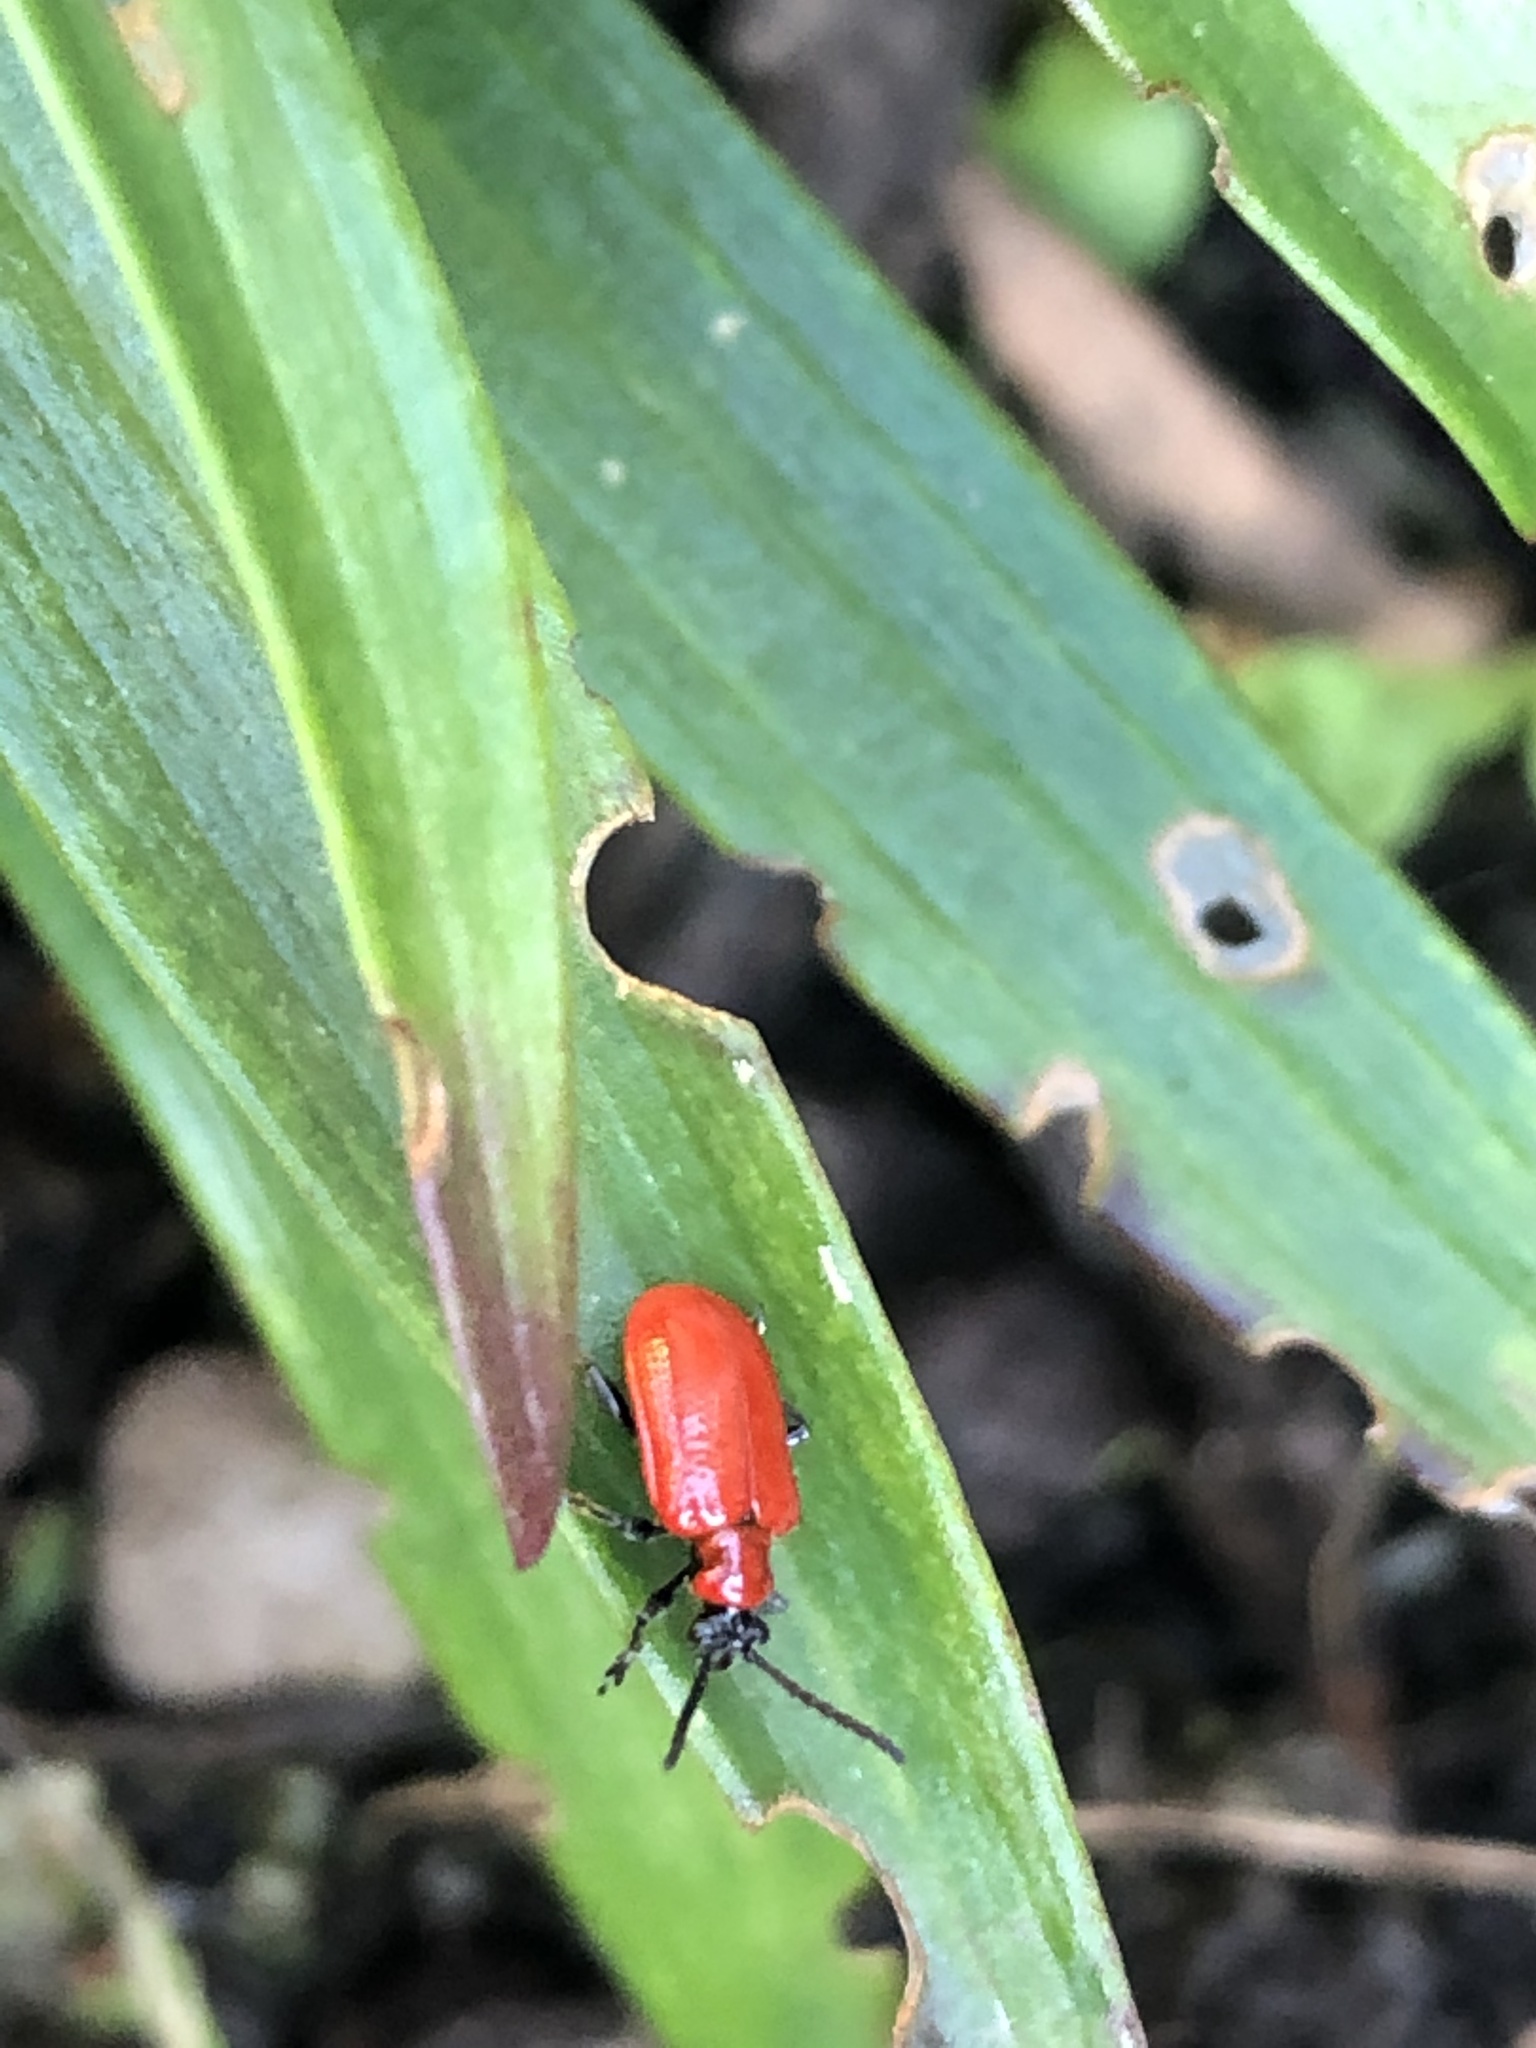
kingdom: Animalia
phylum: Arthropoda
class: Insecta
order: Coleoptera
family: Chrysomelidae
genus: Lilioceris
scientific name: Lilioceris lilii
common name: Lily beetle
